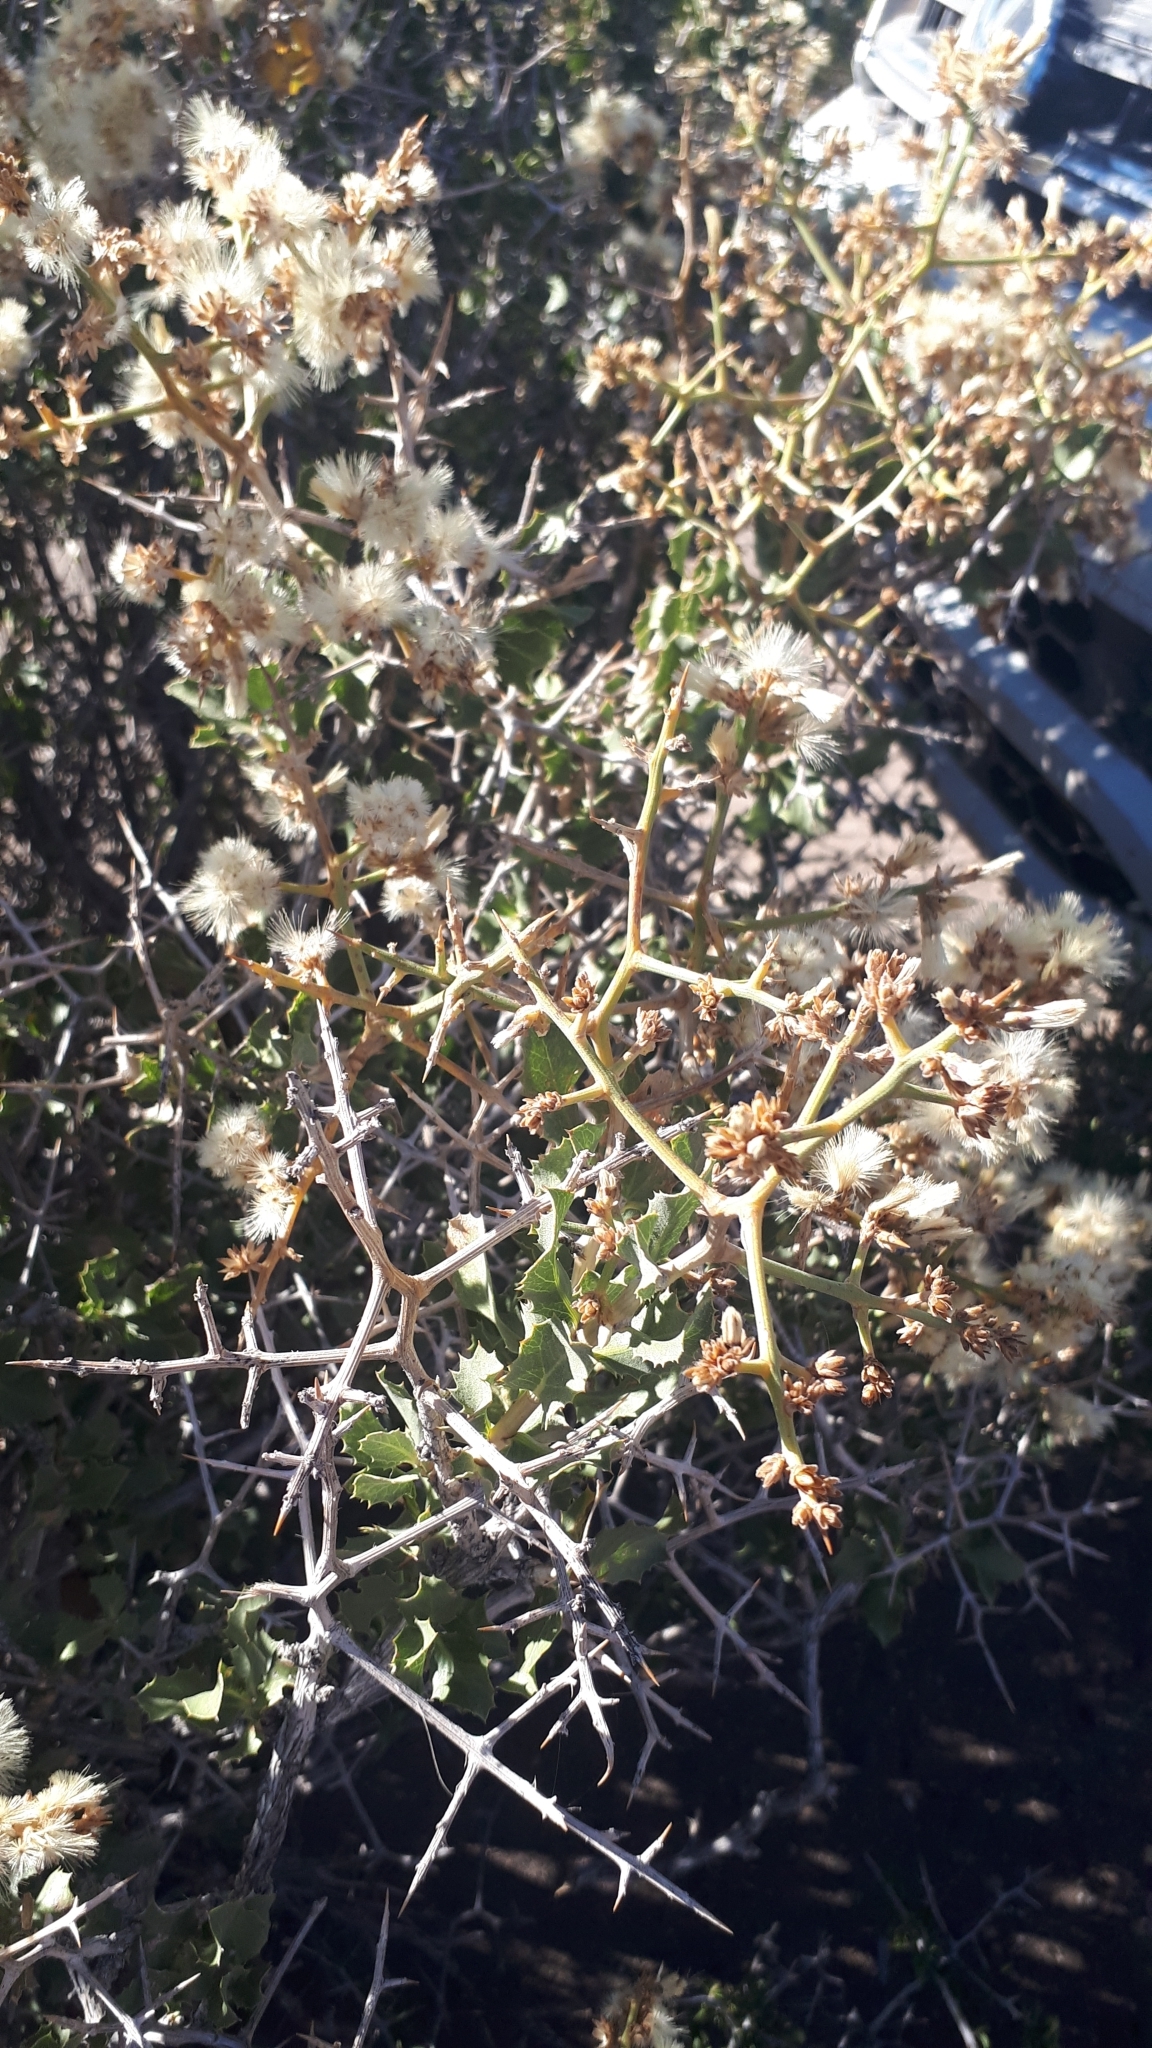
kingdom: Plantae
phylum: Tracheophyta
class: Magnoliopsida
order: Asterales
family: Asteraceae
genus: Proustia
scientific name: Proustia cuneifolia
